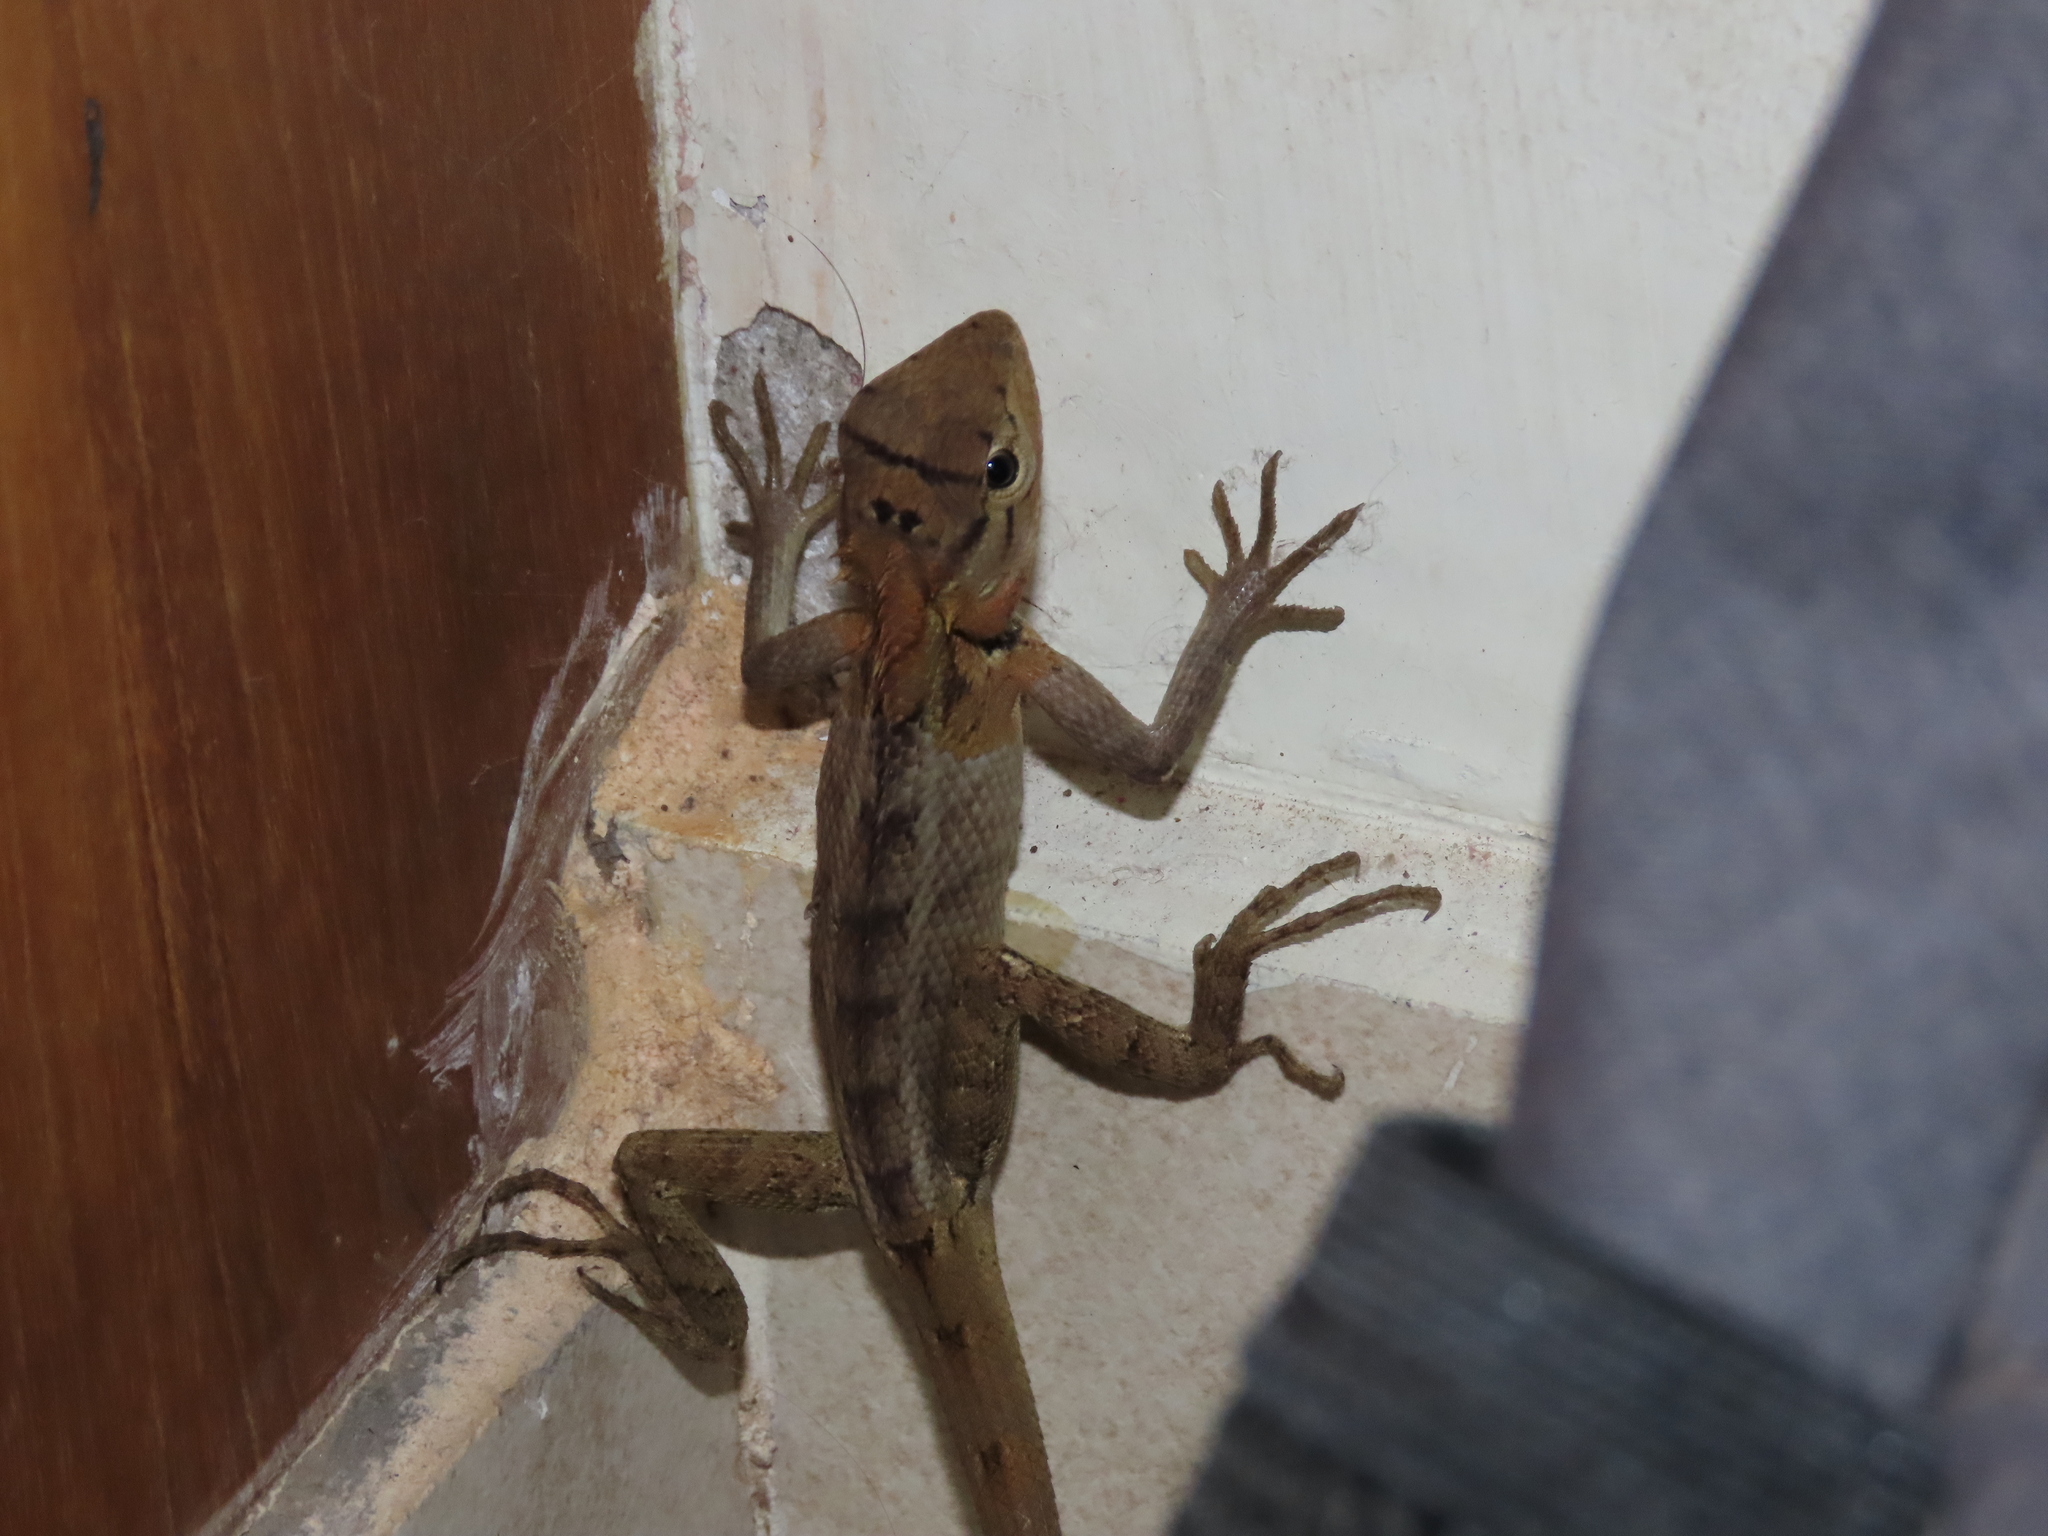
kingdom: Animalia
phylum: Chordata
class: Squamata
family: Agamidae
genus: Calotes
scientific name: Calotes versicolor
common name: Oriental garden lizard
